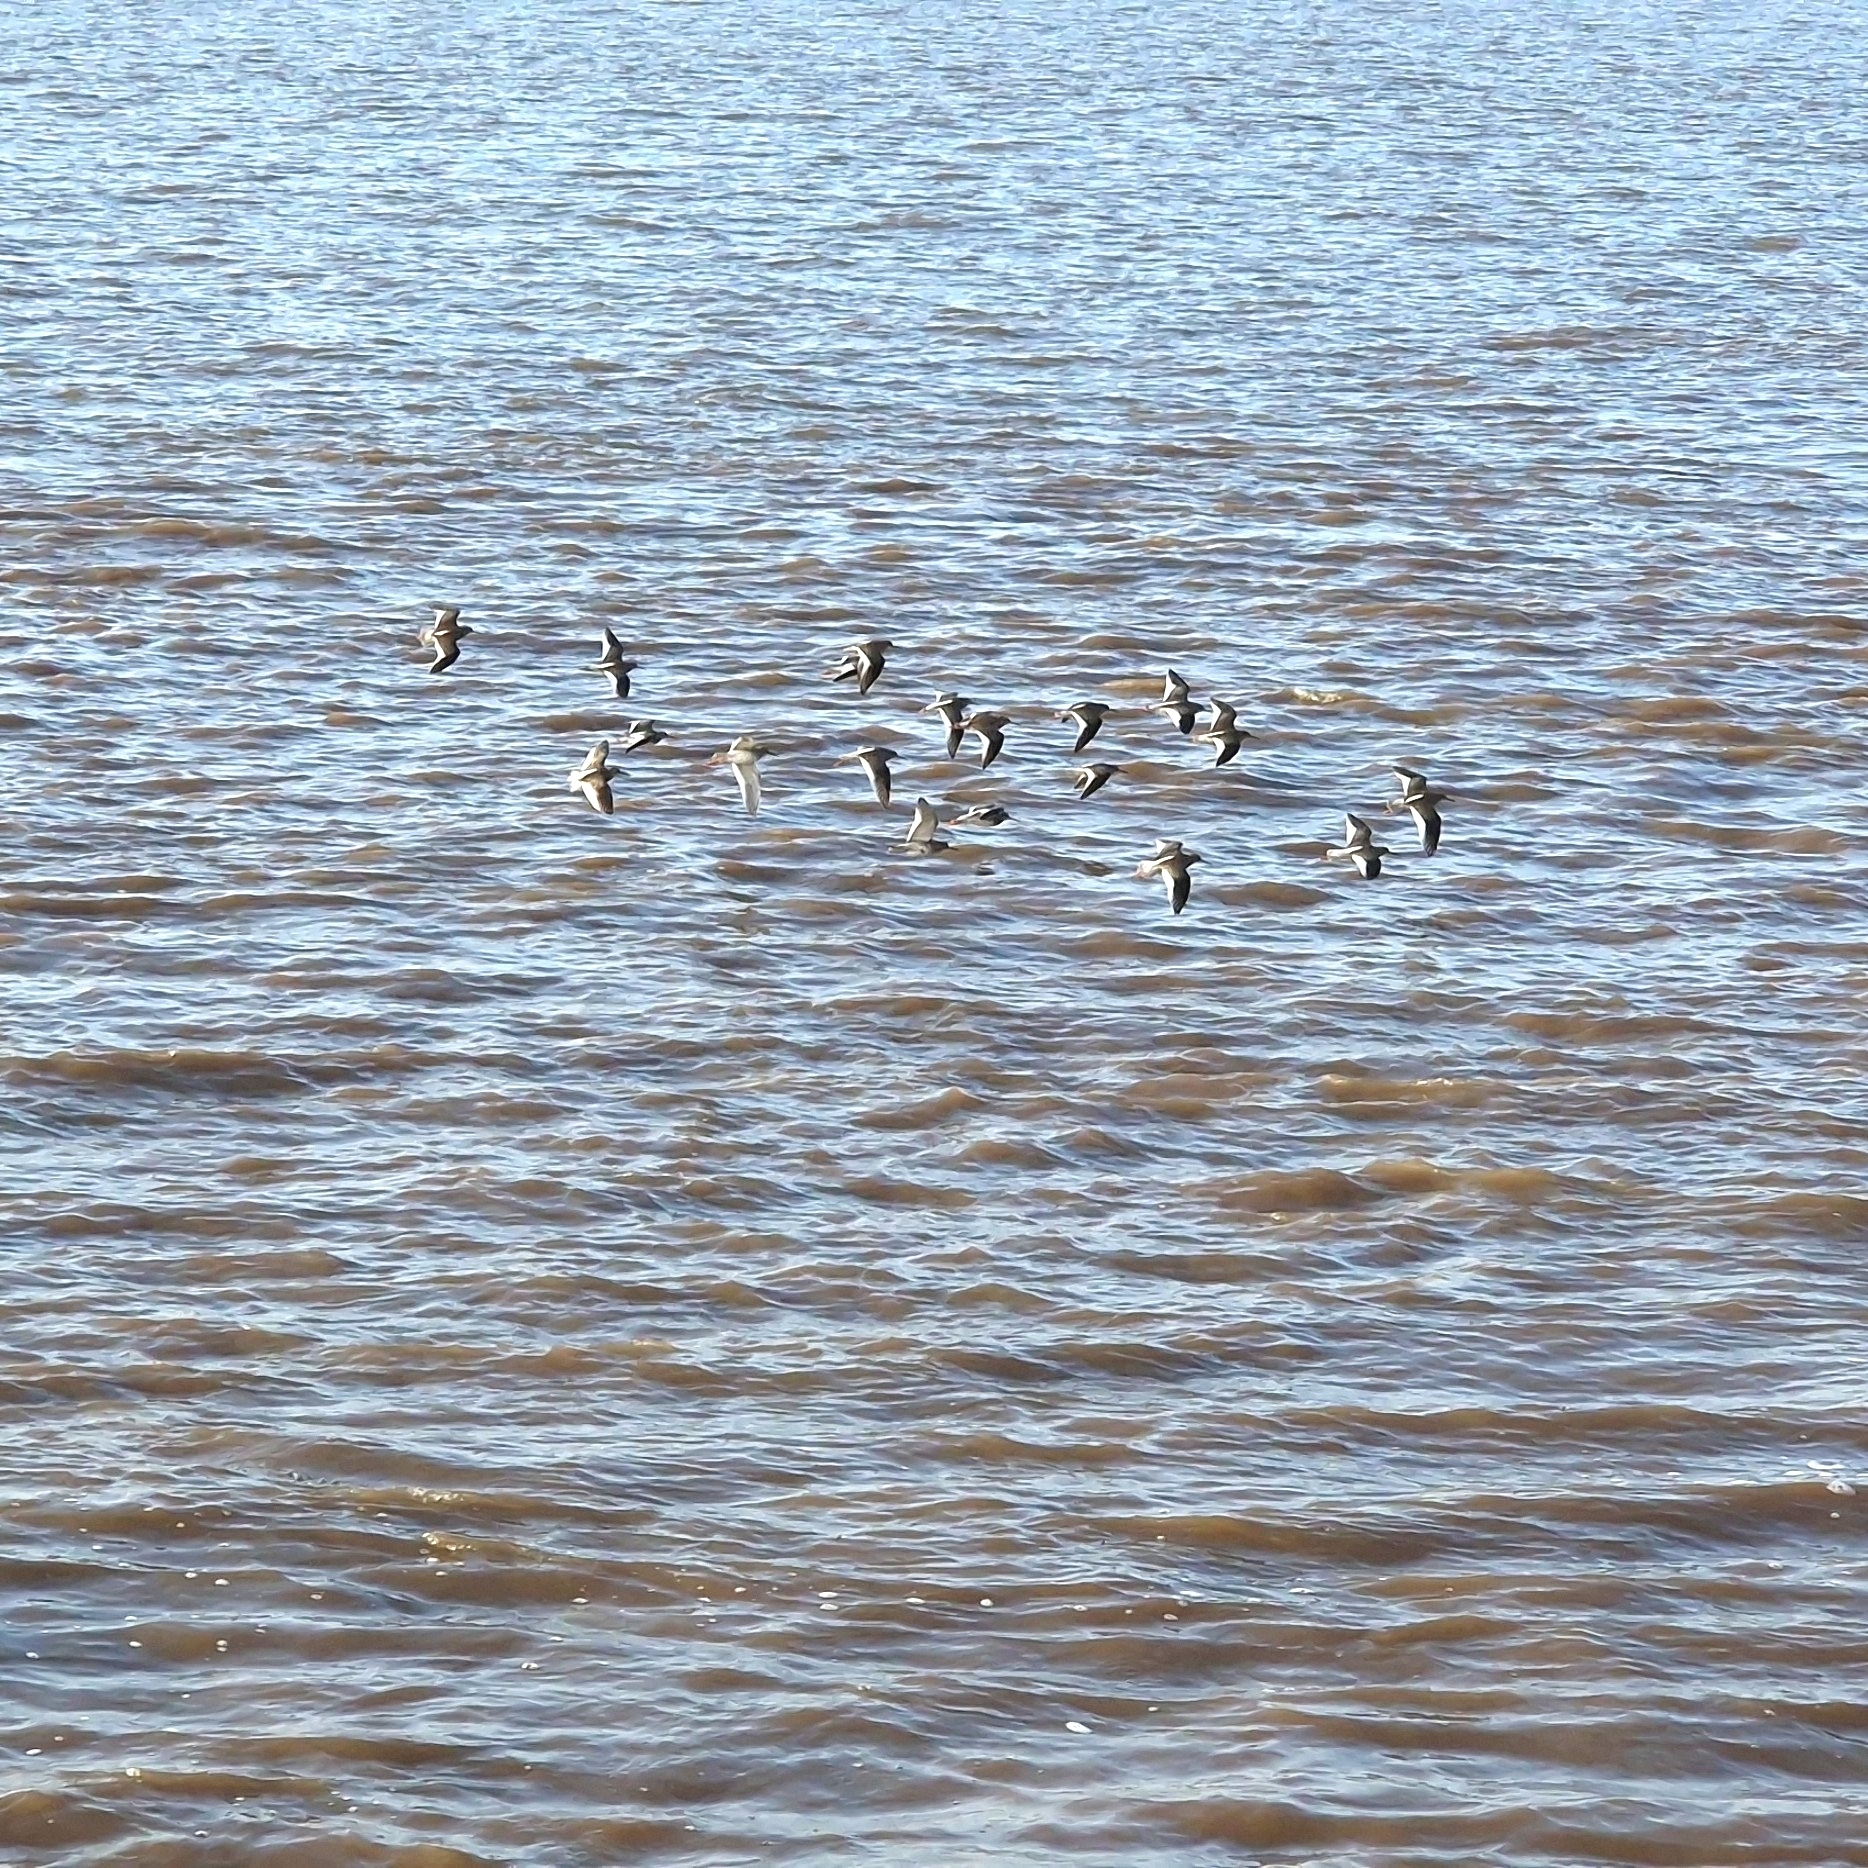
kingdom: Animalia
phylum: Chordata
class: Aves
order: Charadriiformes
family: Scolopacidae
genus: Tringa
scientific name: Tringa totanus
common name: Common redshank
